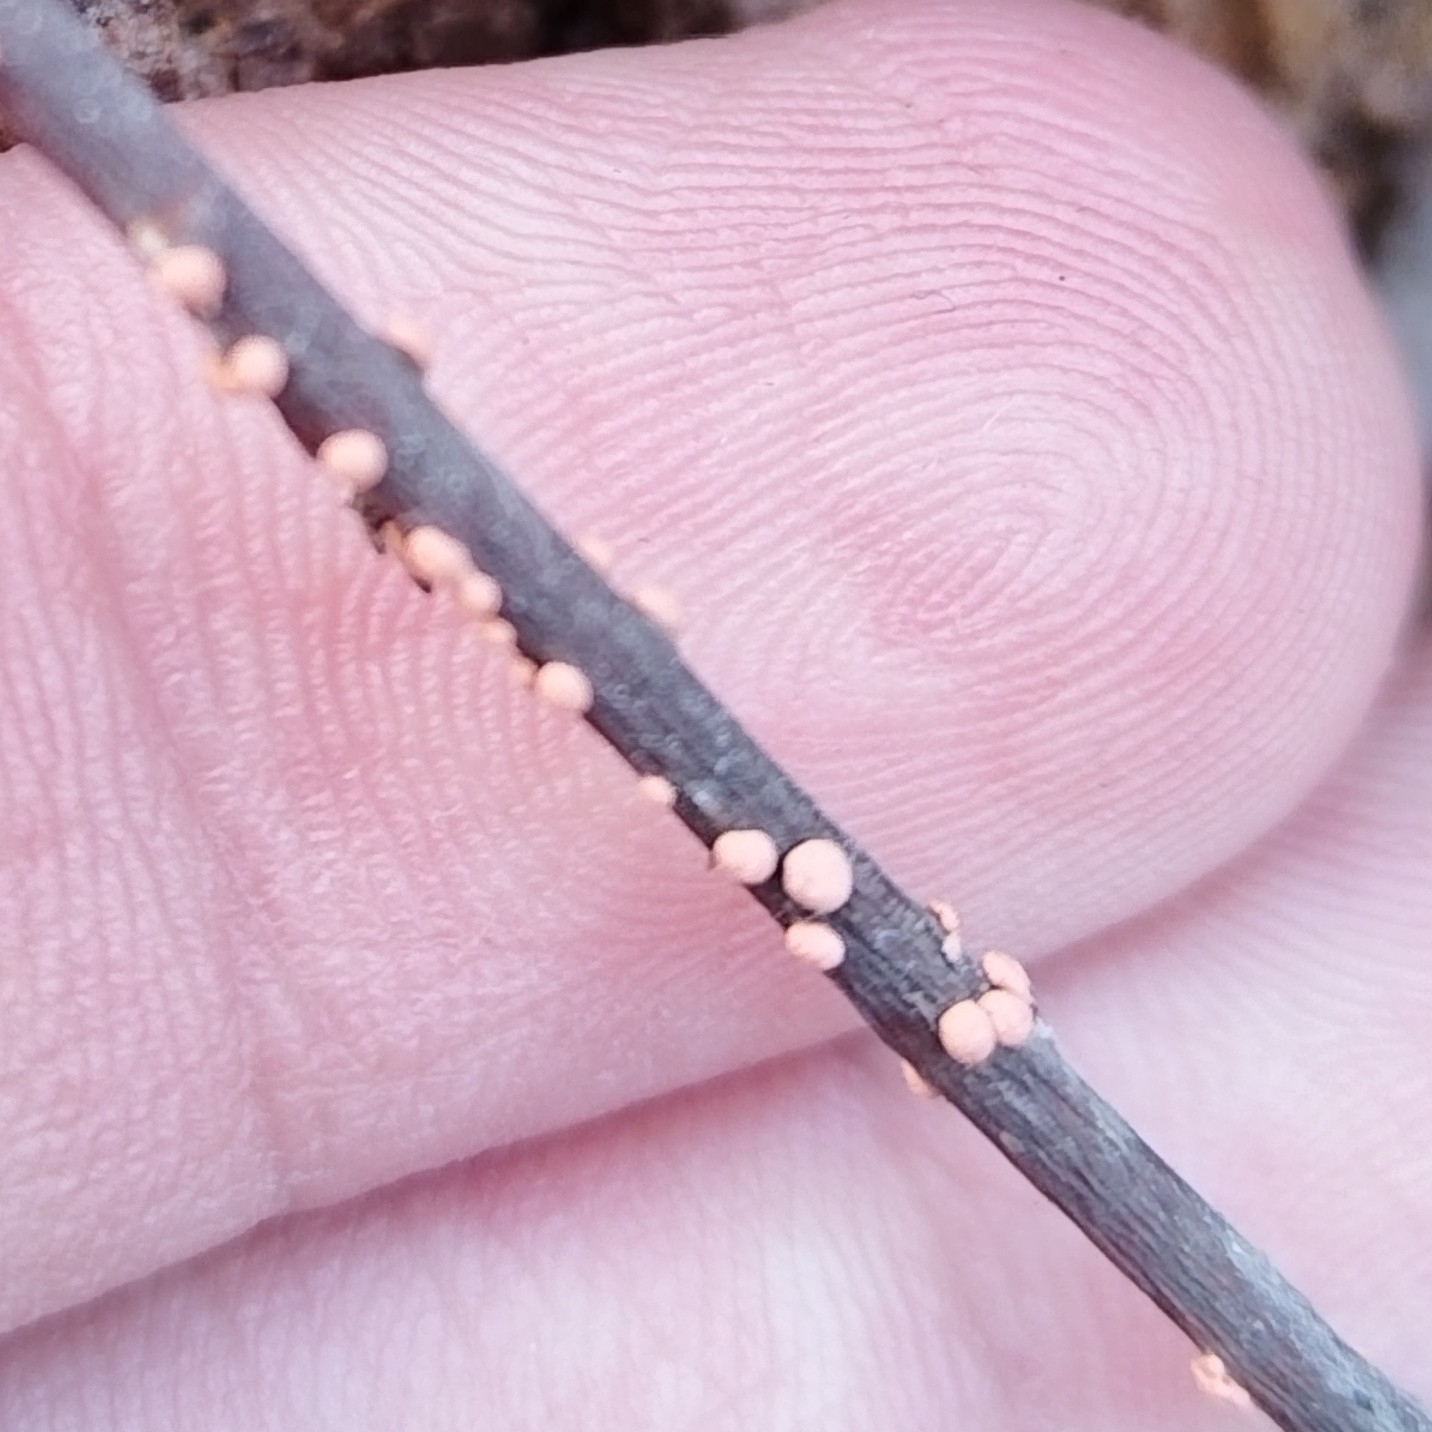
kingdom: Fungi
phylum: Ascomycota
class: Sordariomycetes
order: Hypocreales
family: Nectriaceae
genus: Nectria
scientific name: Nectria cinnabarina
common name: Coral spot
